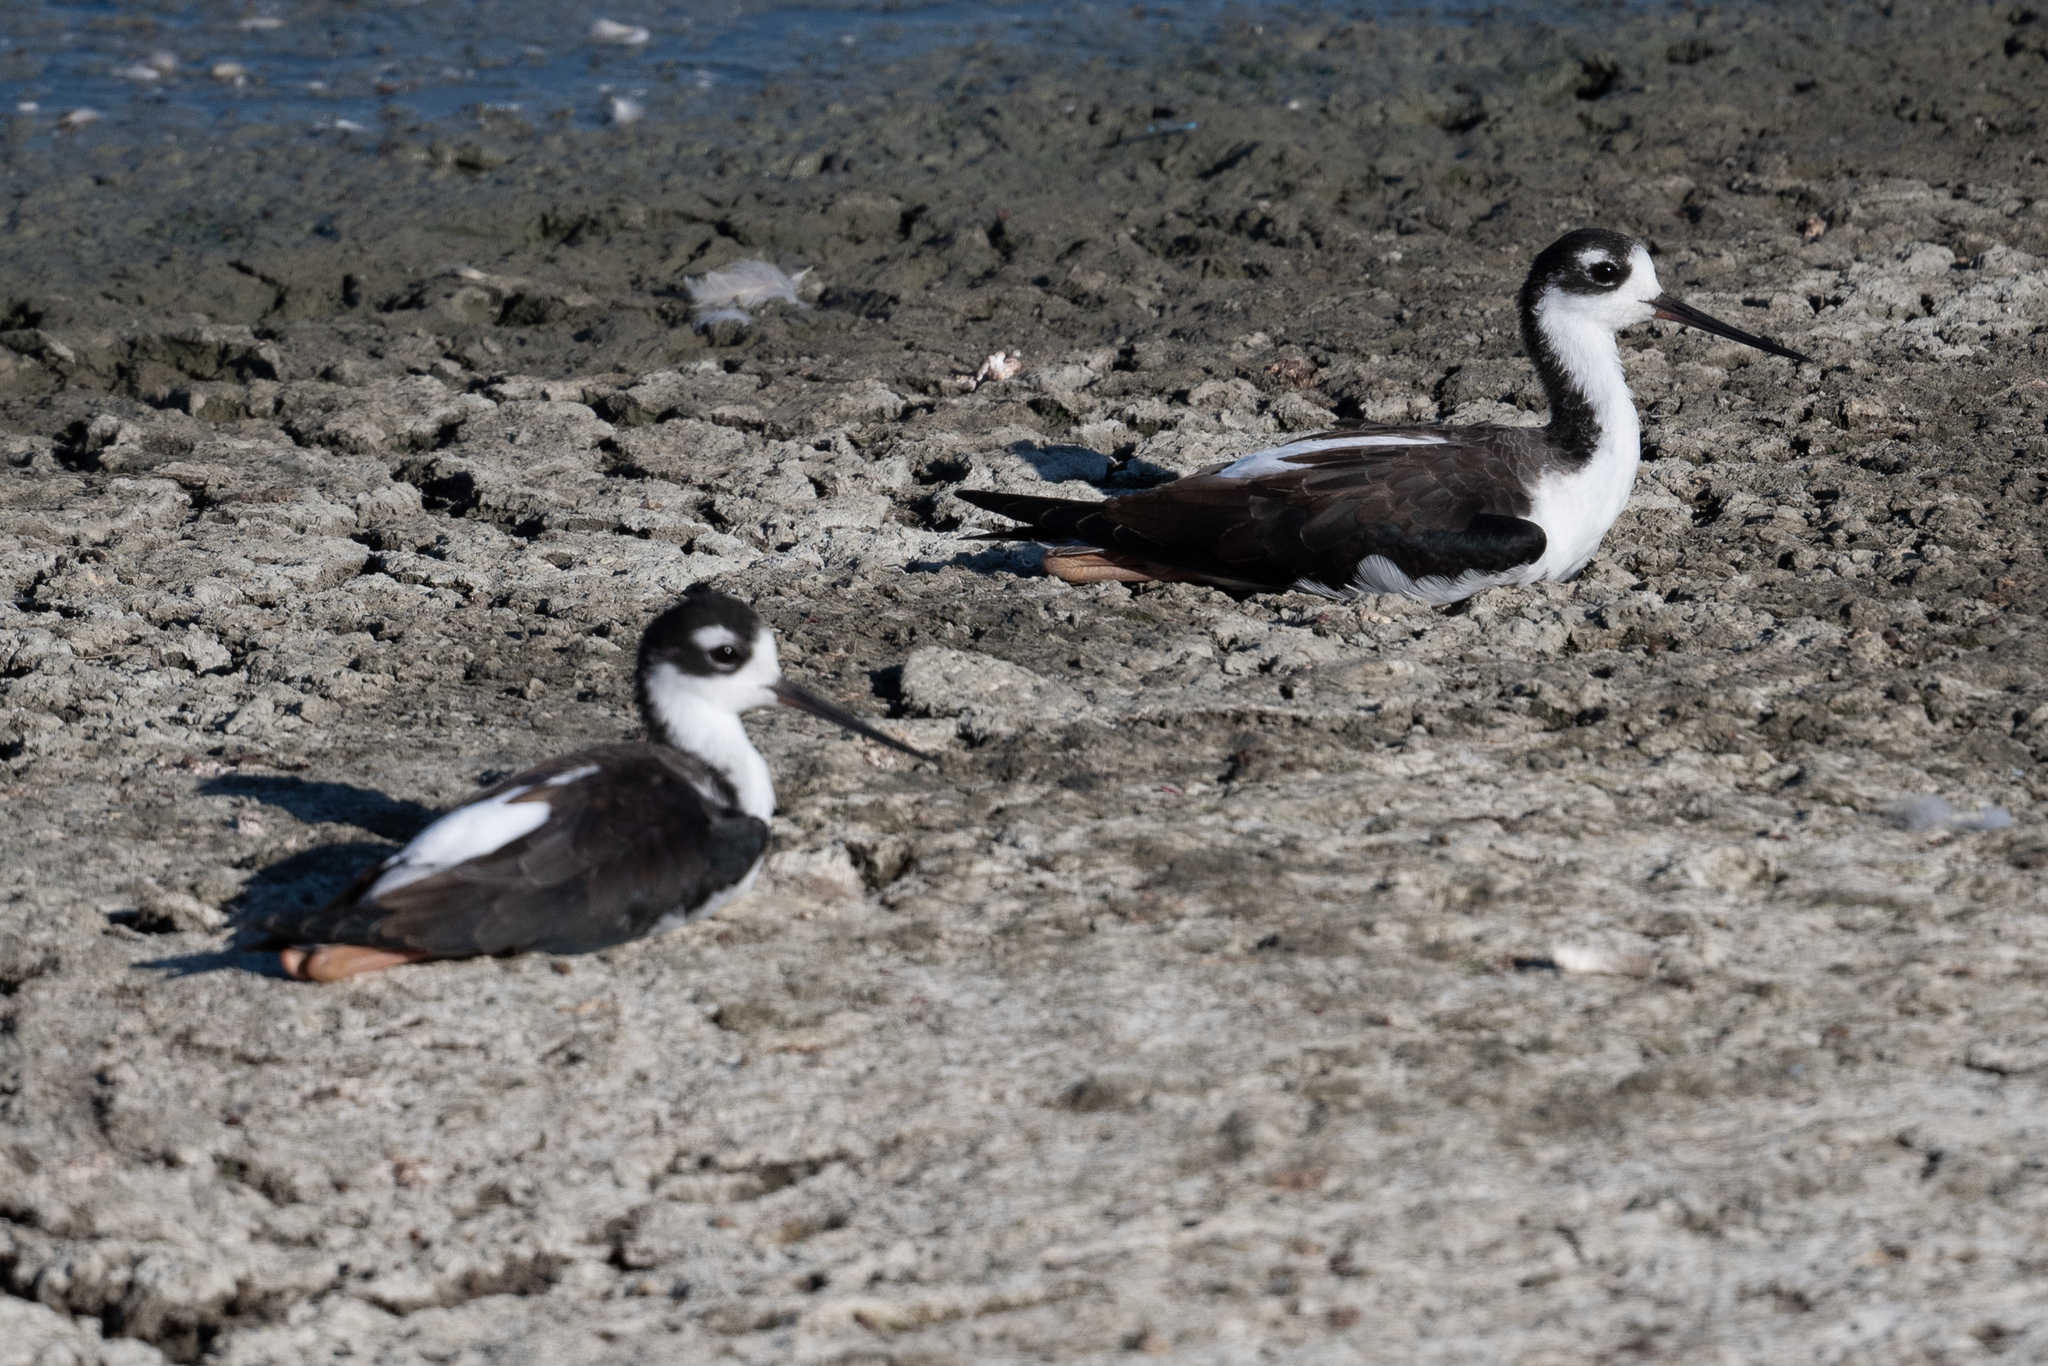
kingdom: Animalia
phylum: Chordata
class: Aves
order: Charadriiformes
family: Recurvirostridae
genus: Himantopus
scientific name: Himantopus mexicanus
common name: Black-necked stilt
